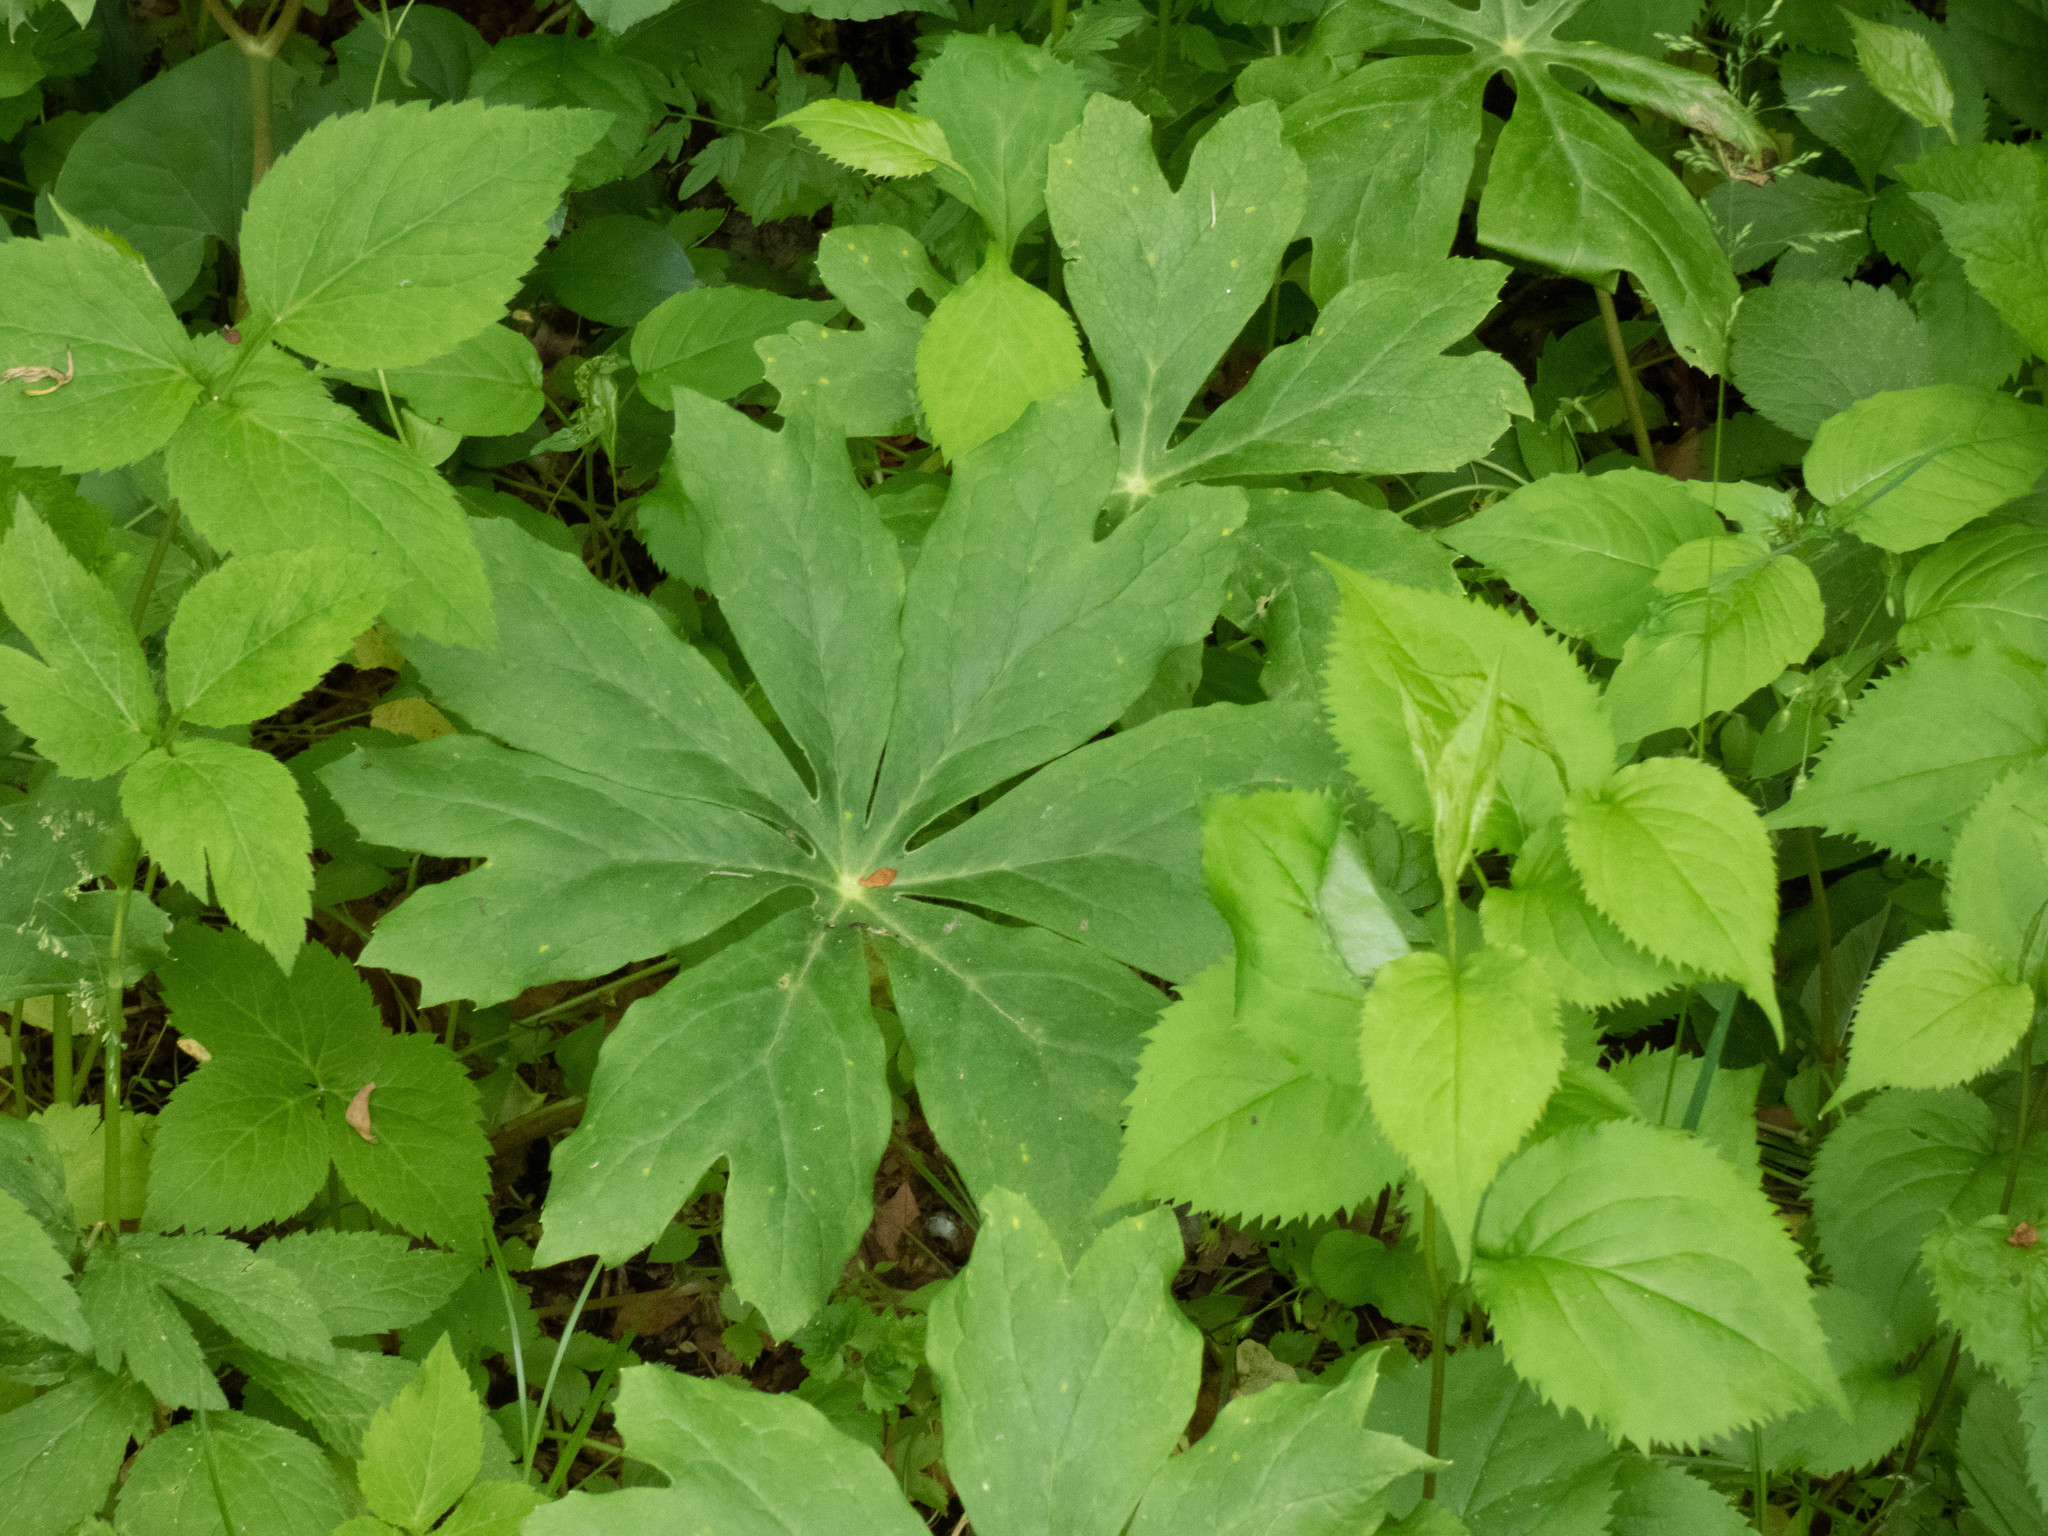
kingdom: Plantae
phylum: Tracheophyta
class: Magnoliopsida
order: Ranunculales
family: Berberidaceae
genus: Podophyllum
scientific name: Podophyllum peltatum
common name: Wild mandrake
